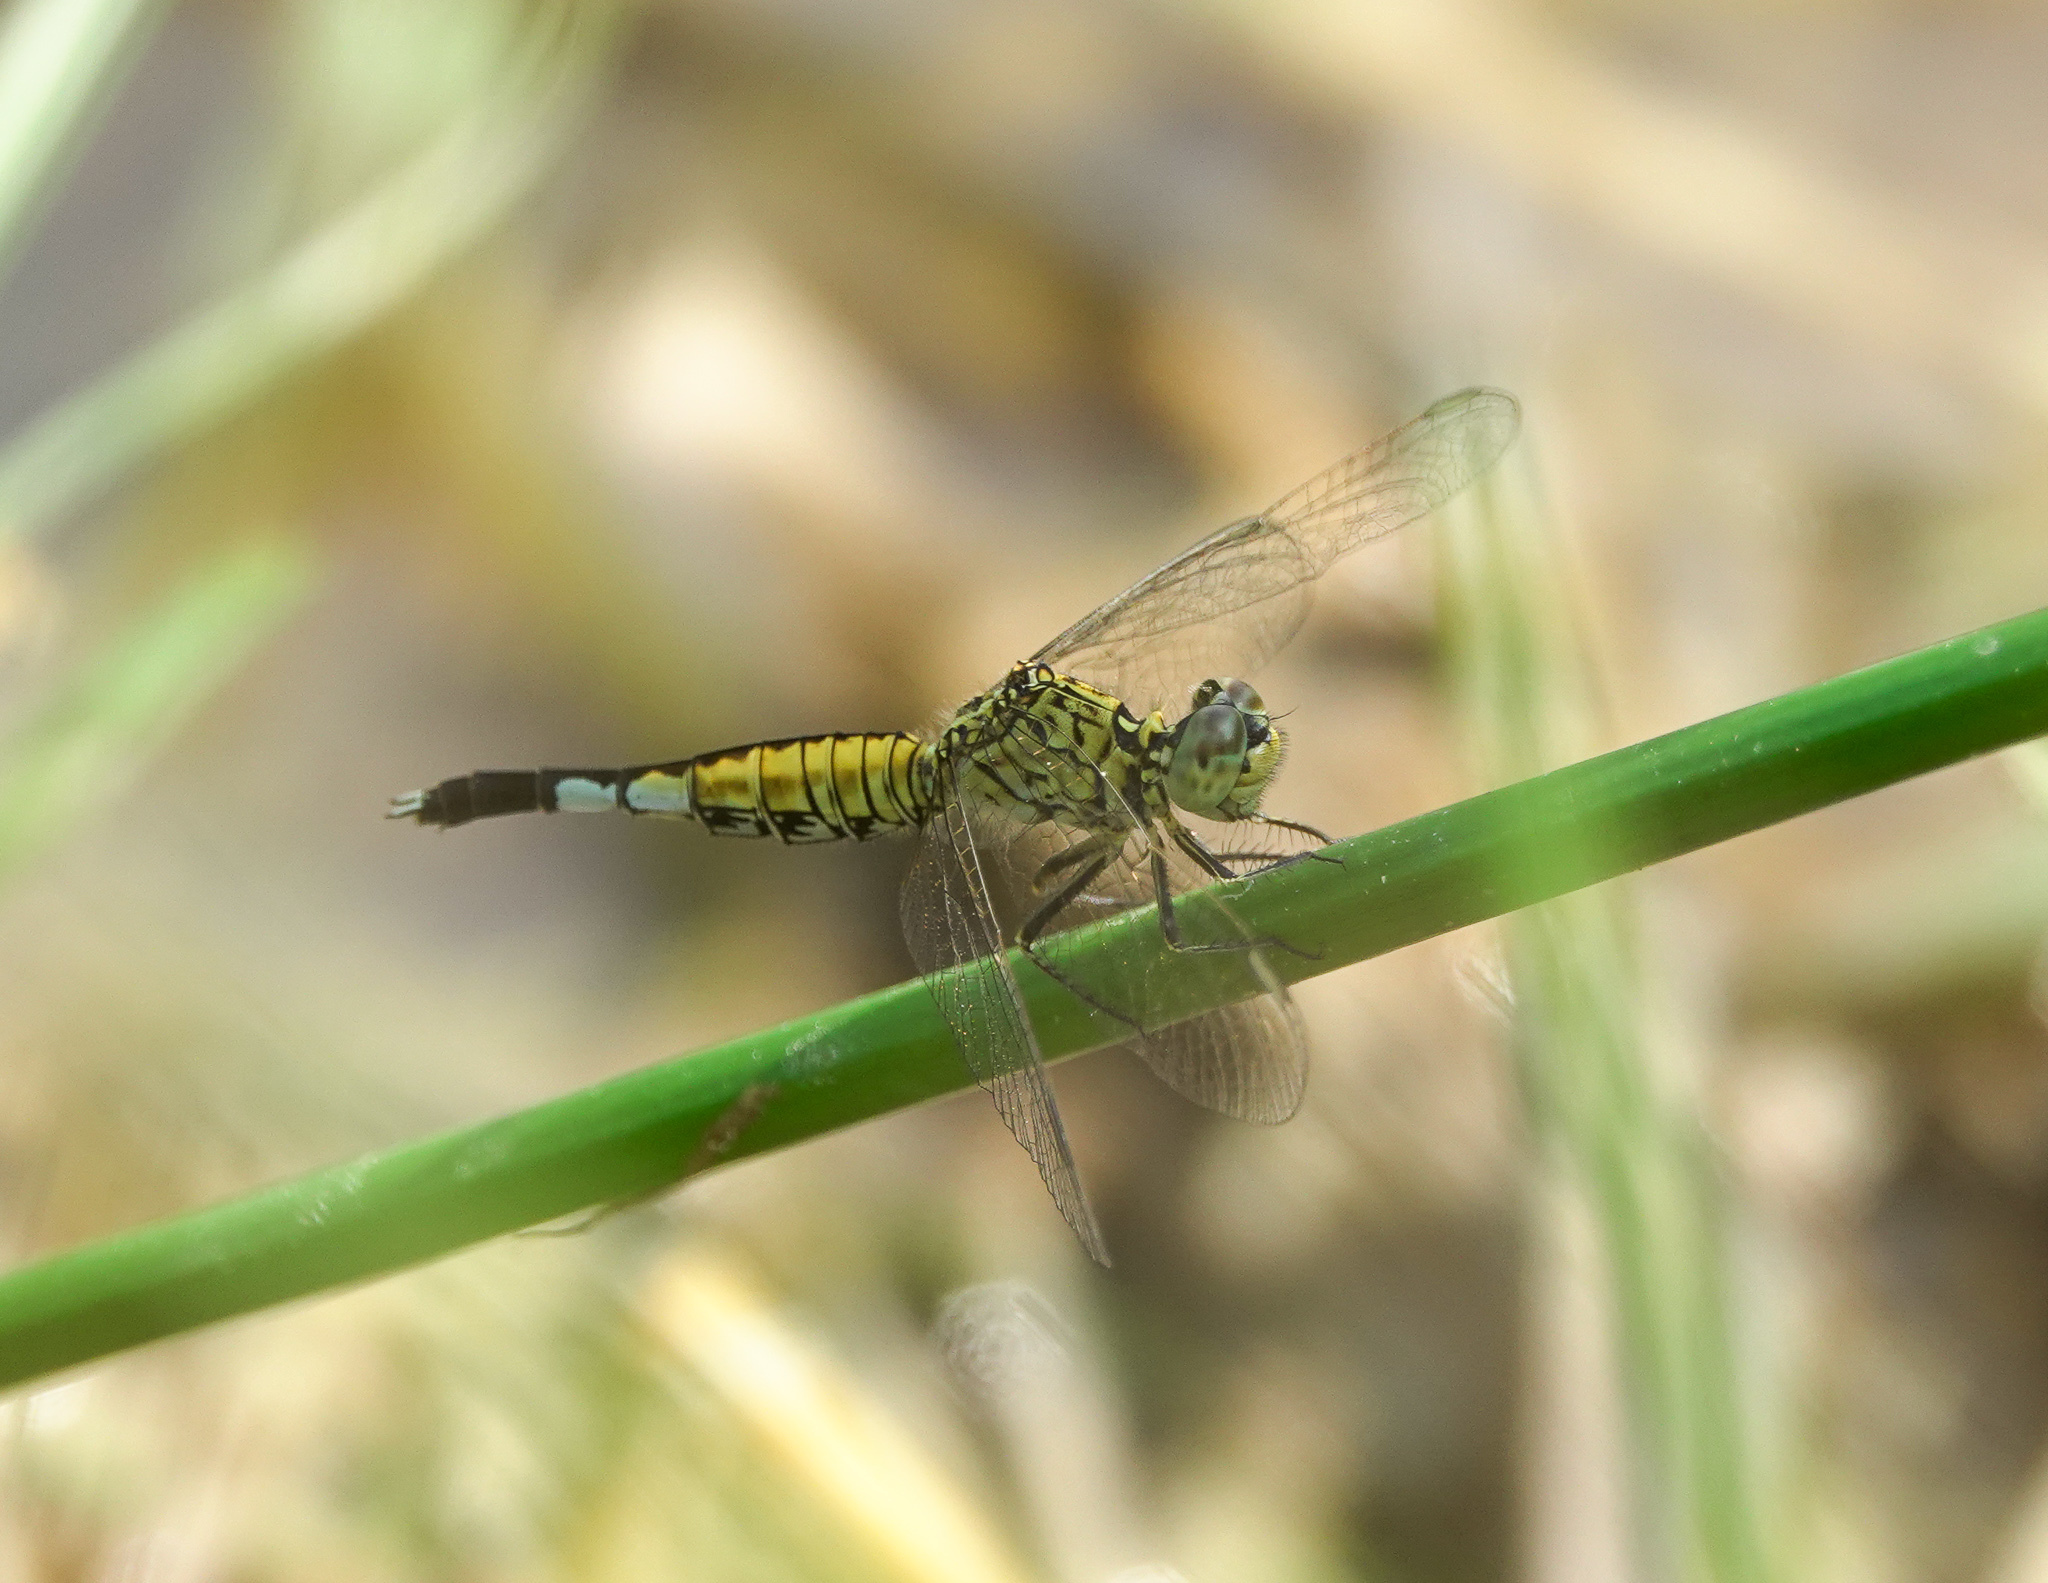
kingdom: Animalia
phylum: Arthropoda
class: Insecta
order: Odonata
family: Libellulidae
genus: Acisoma
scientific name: Acisoma panorpoides
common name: Asian pintail
